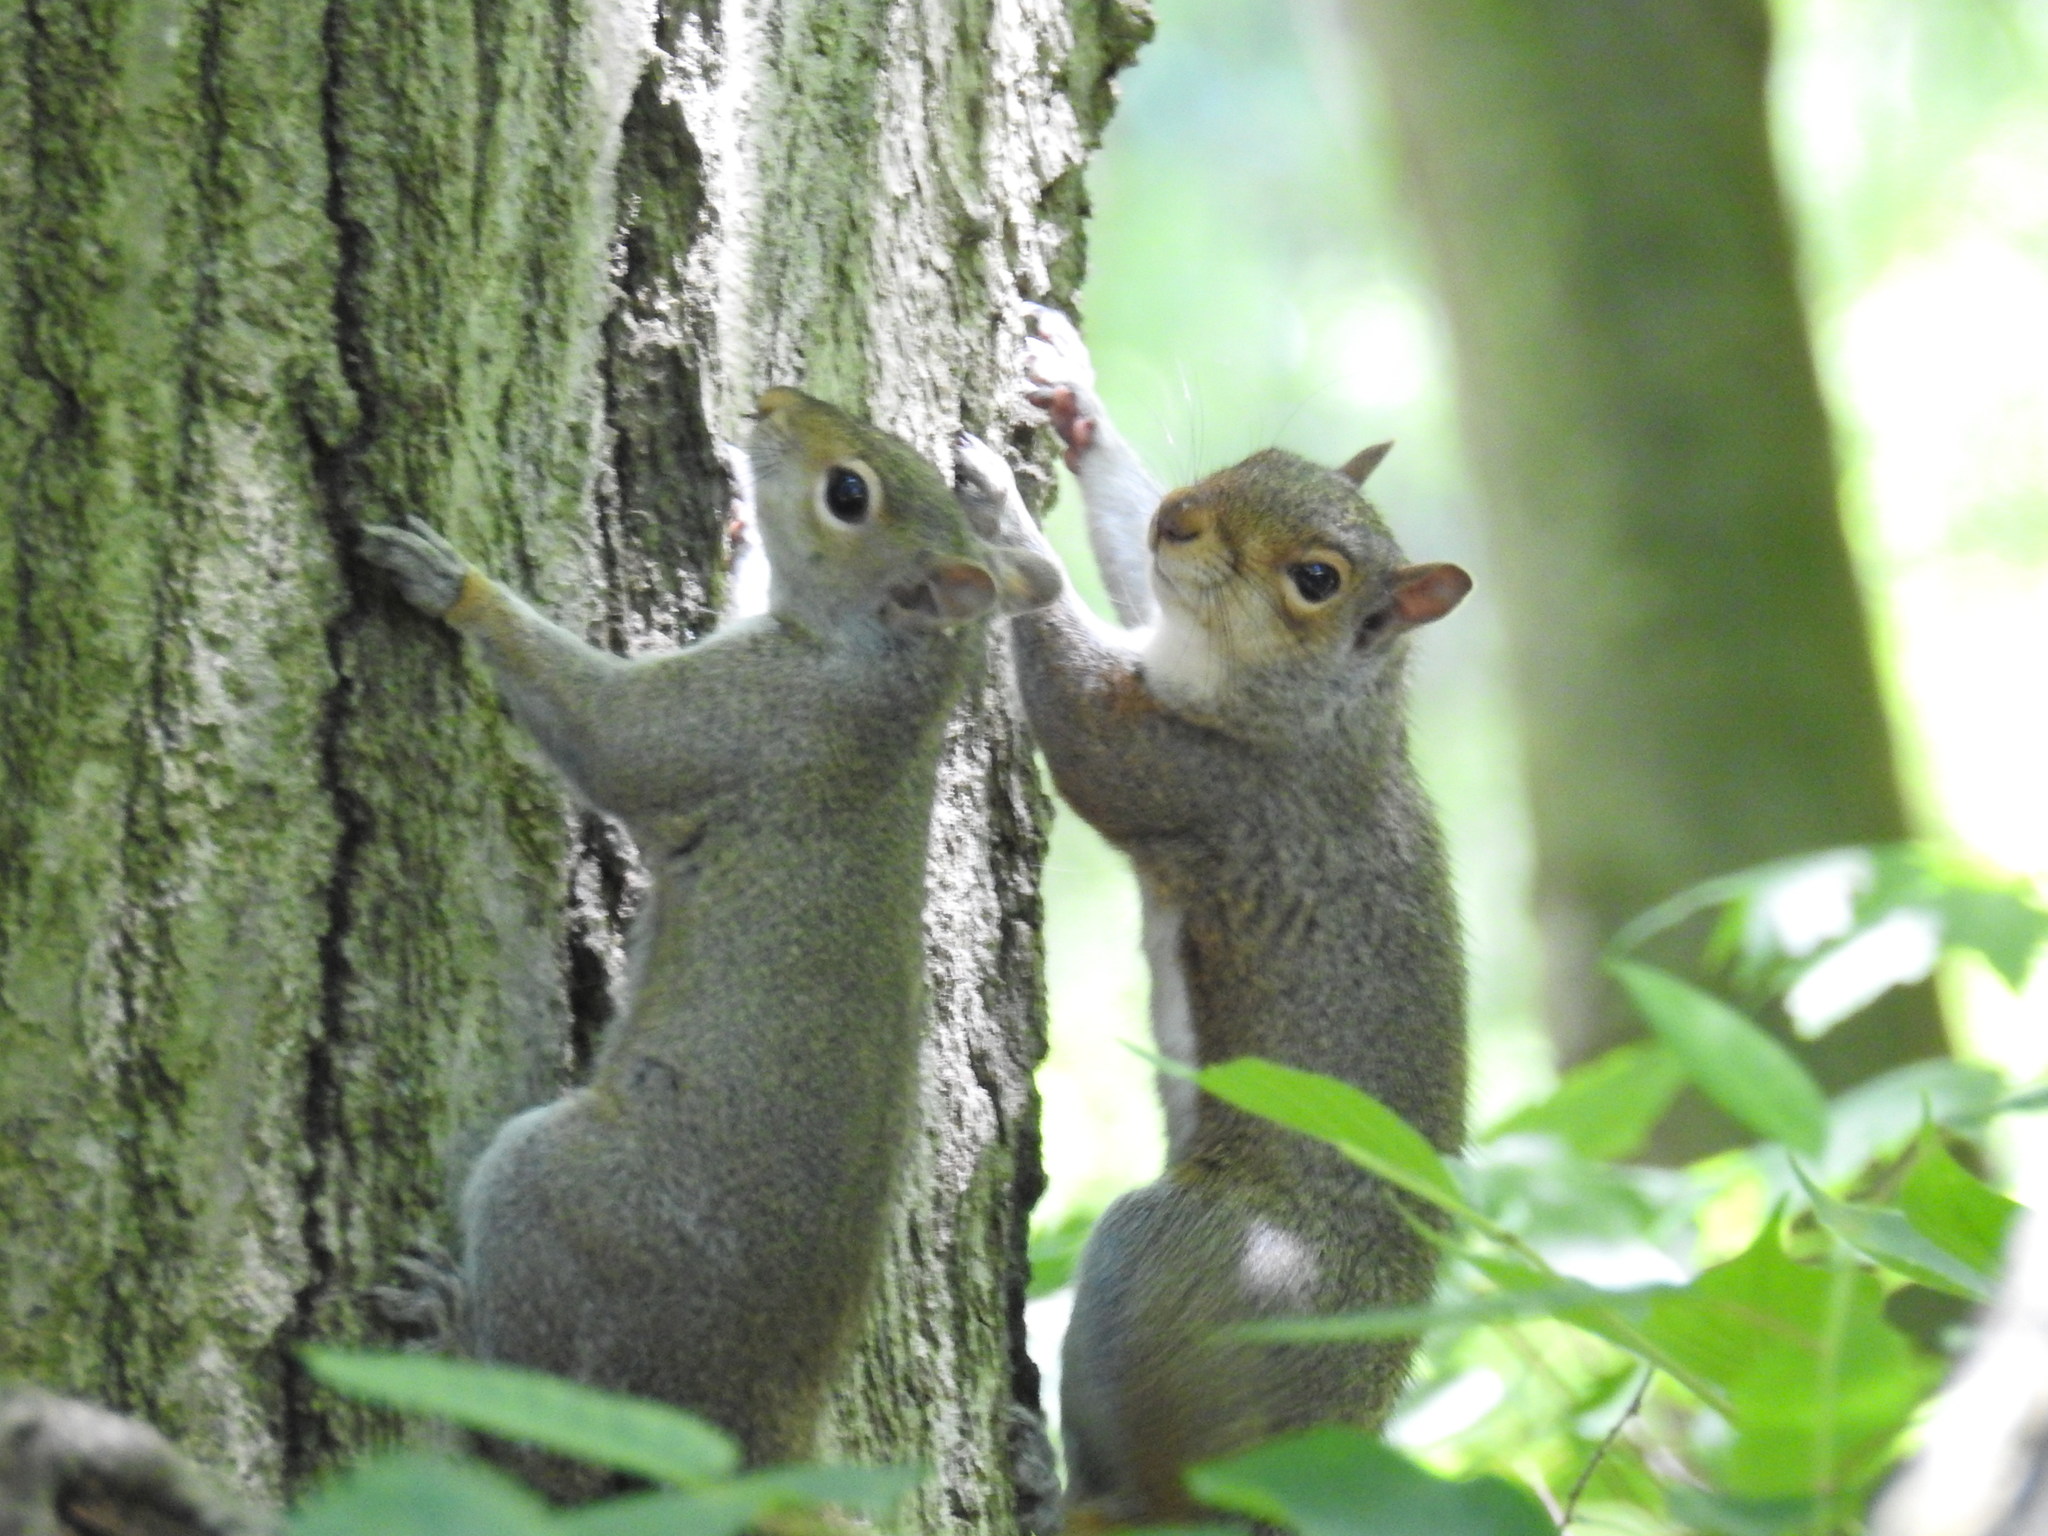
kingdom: Animalia
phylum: Chordata
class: Mammalia
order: Rodentia
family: Sciuridae
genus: Sciurus
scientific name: Sciurus carolinensis
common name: Eastern gray squirrel
